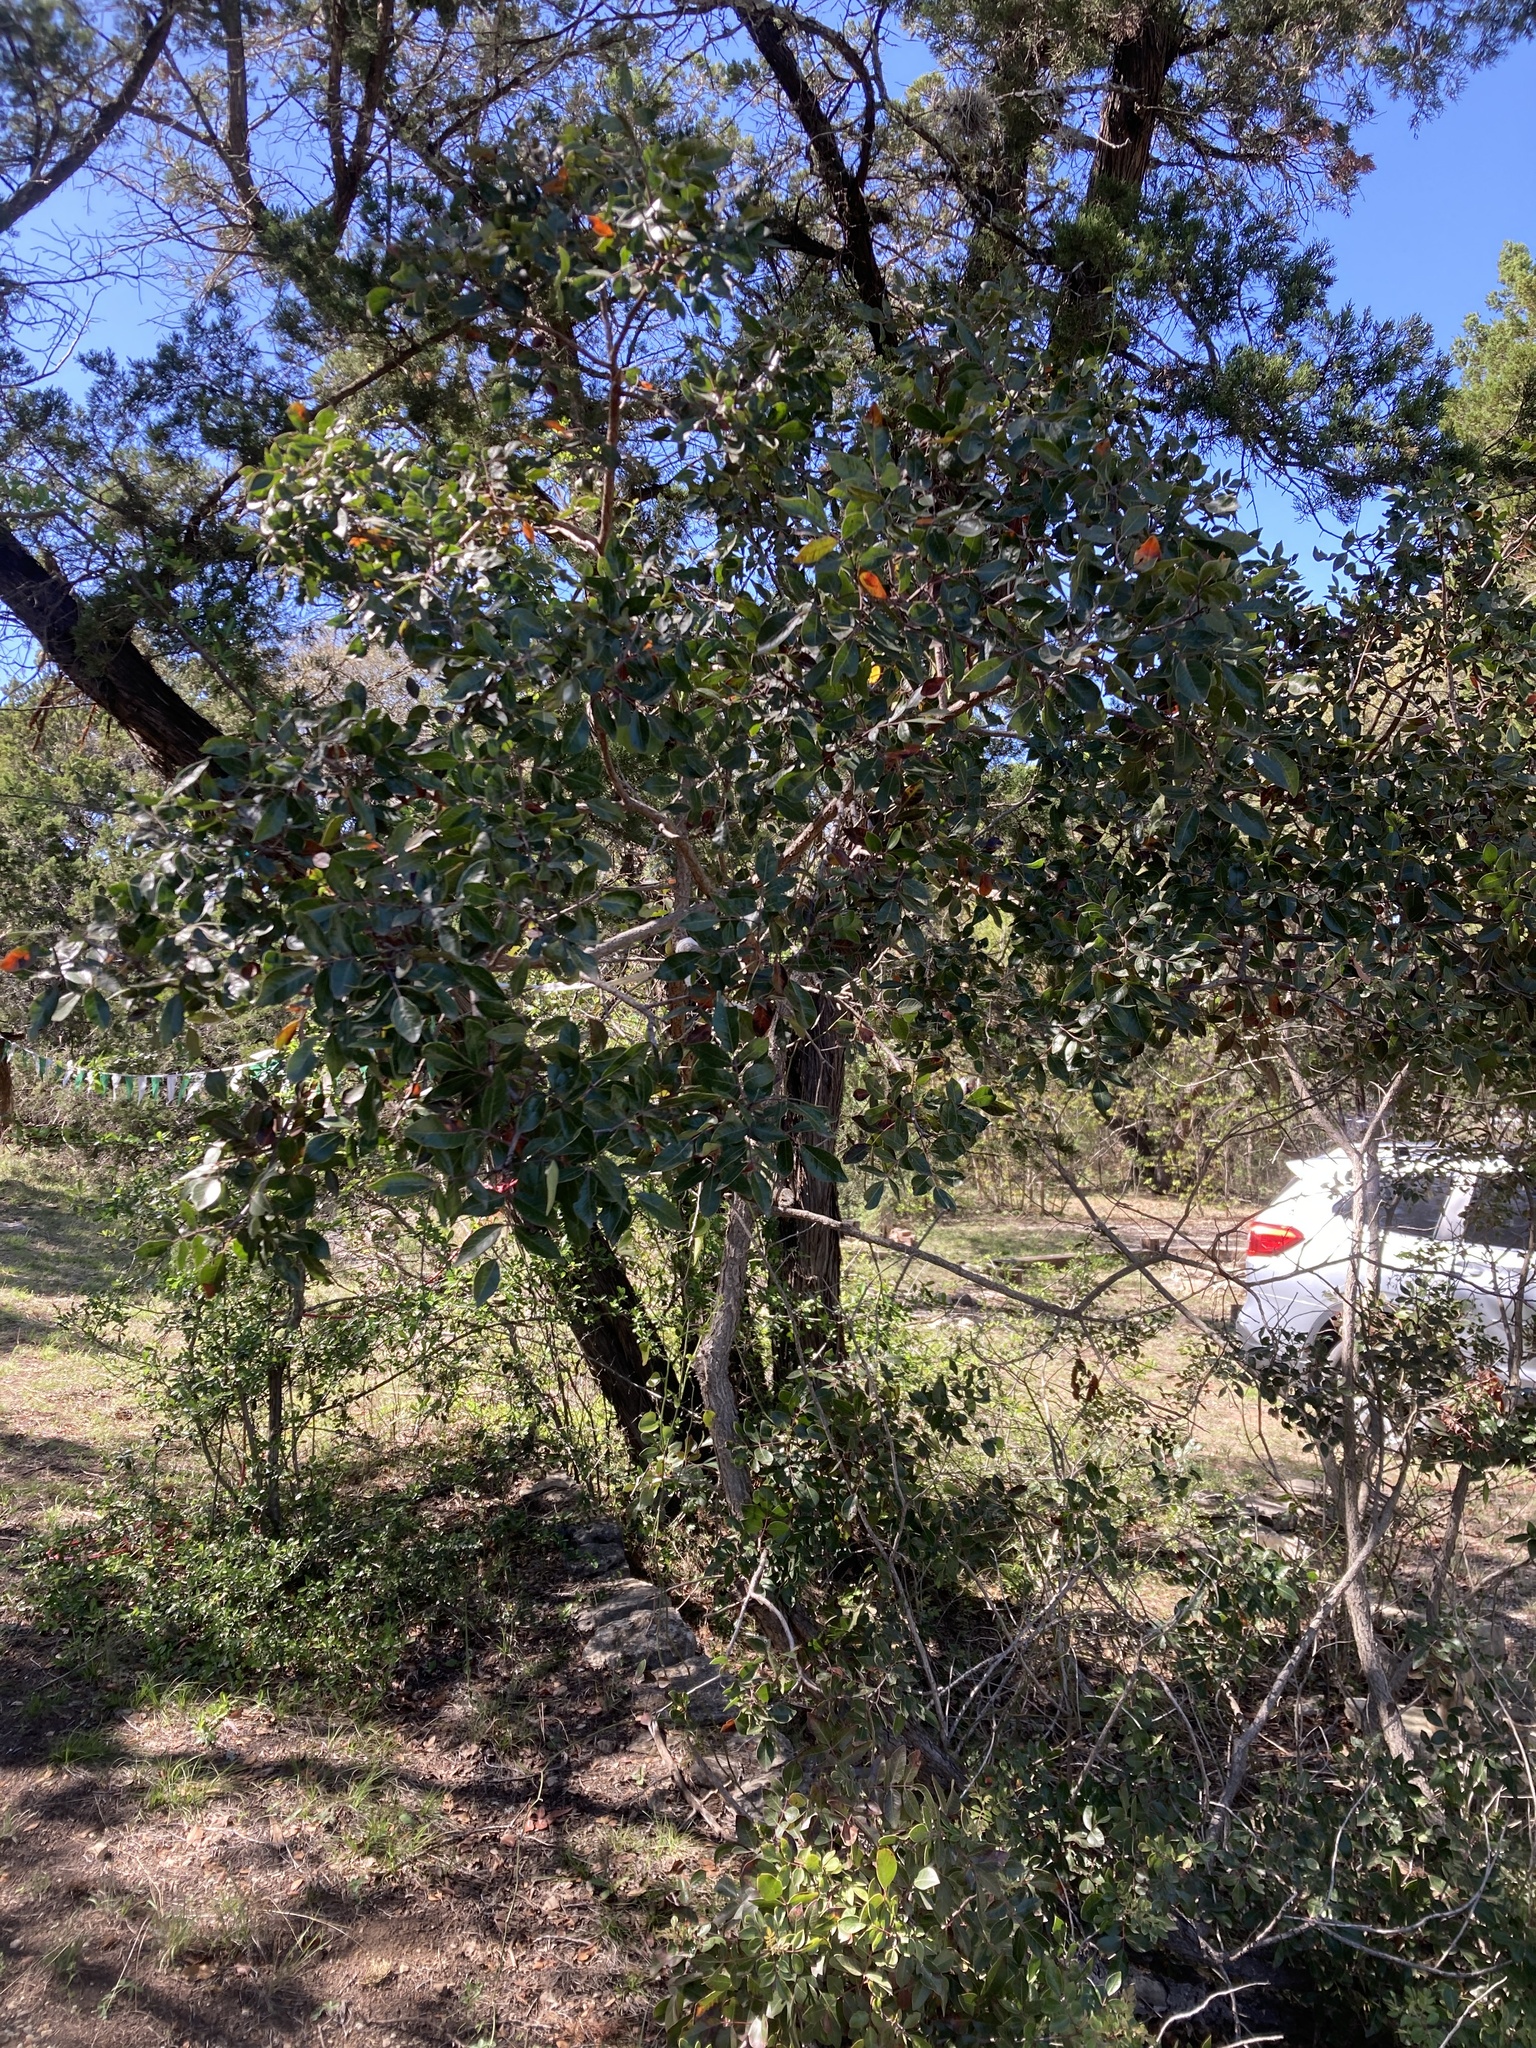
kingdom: Plantae
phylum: Tracheophyta
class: Magnoliopsida
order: Sapindales
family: Anacardiaceae
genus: Rhus
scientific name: Rhus virens
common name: Evergreen sumac
